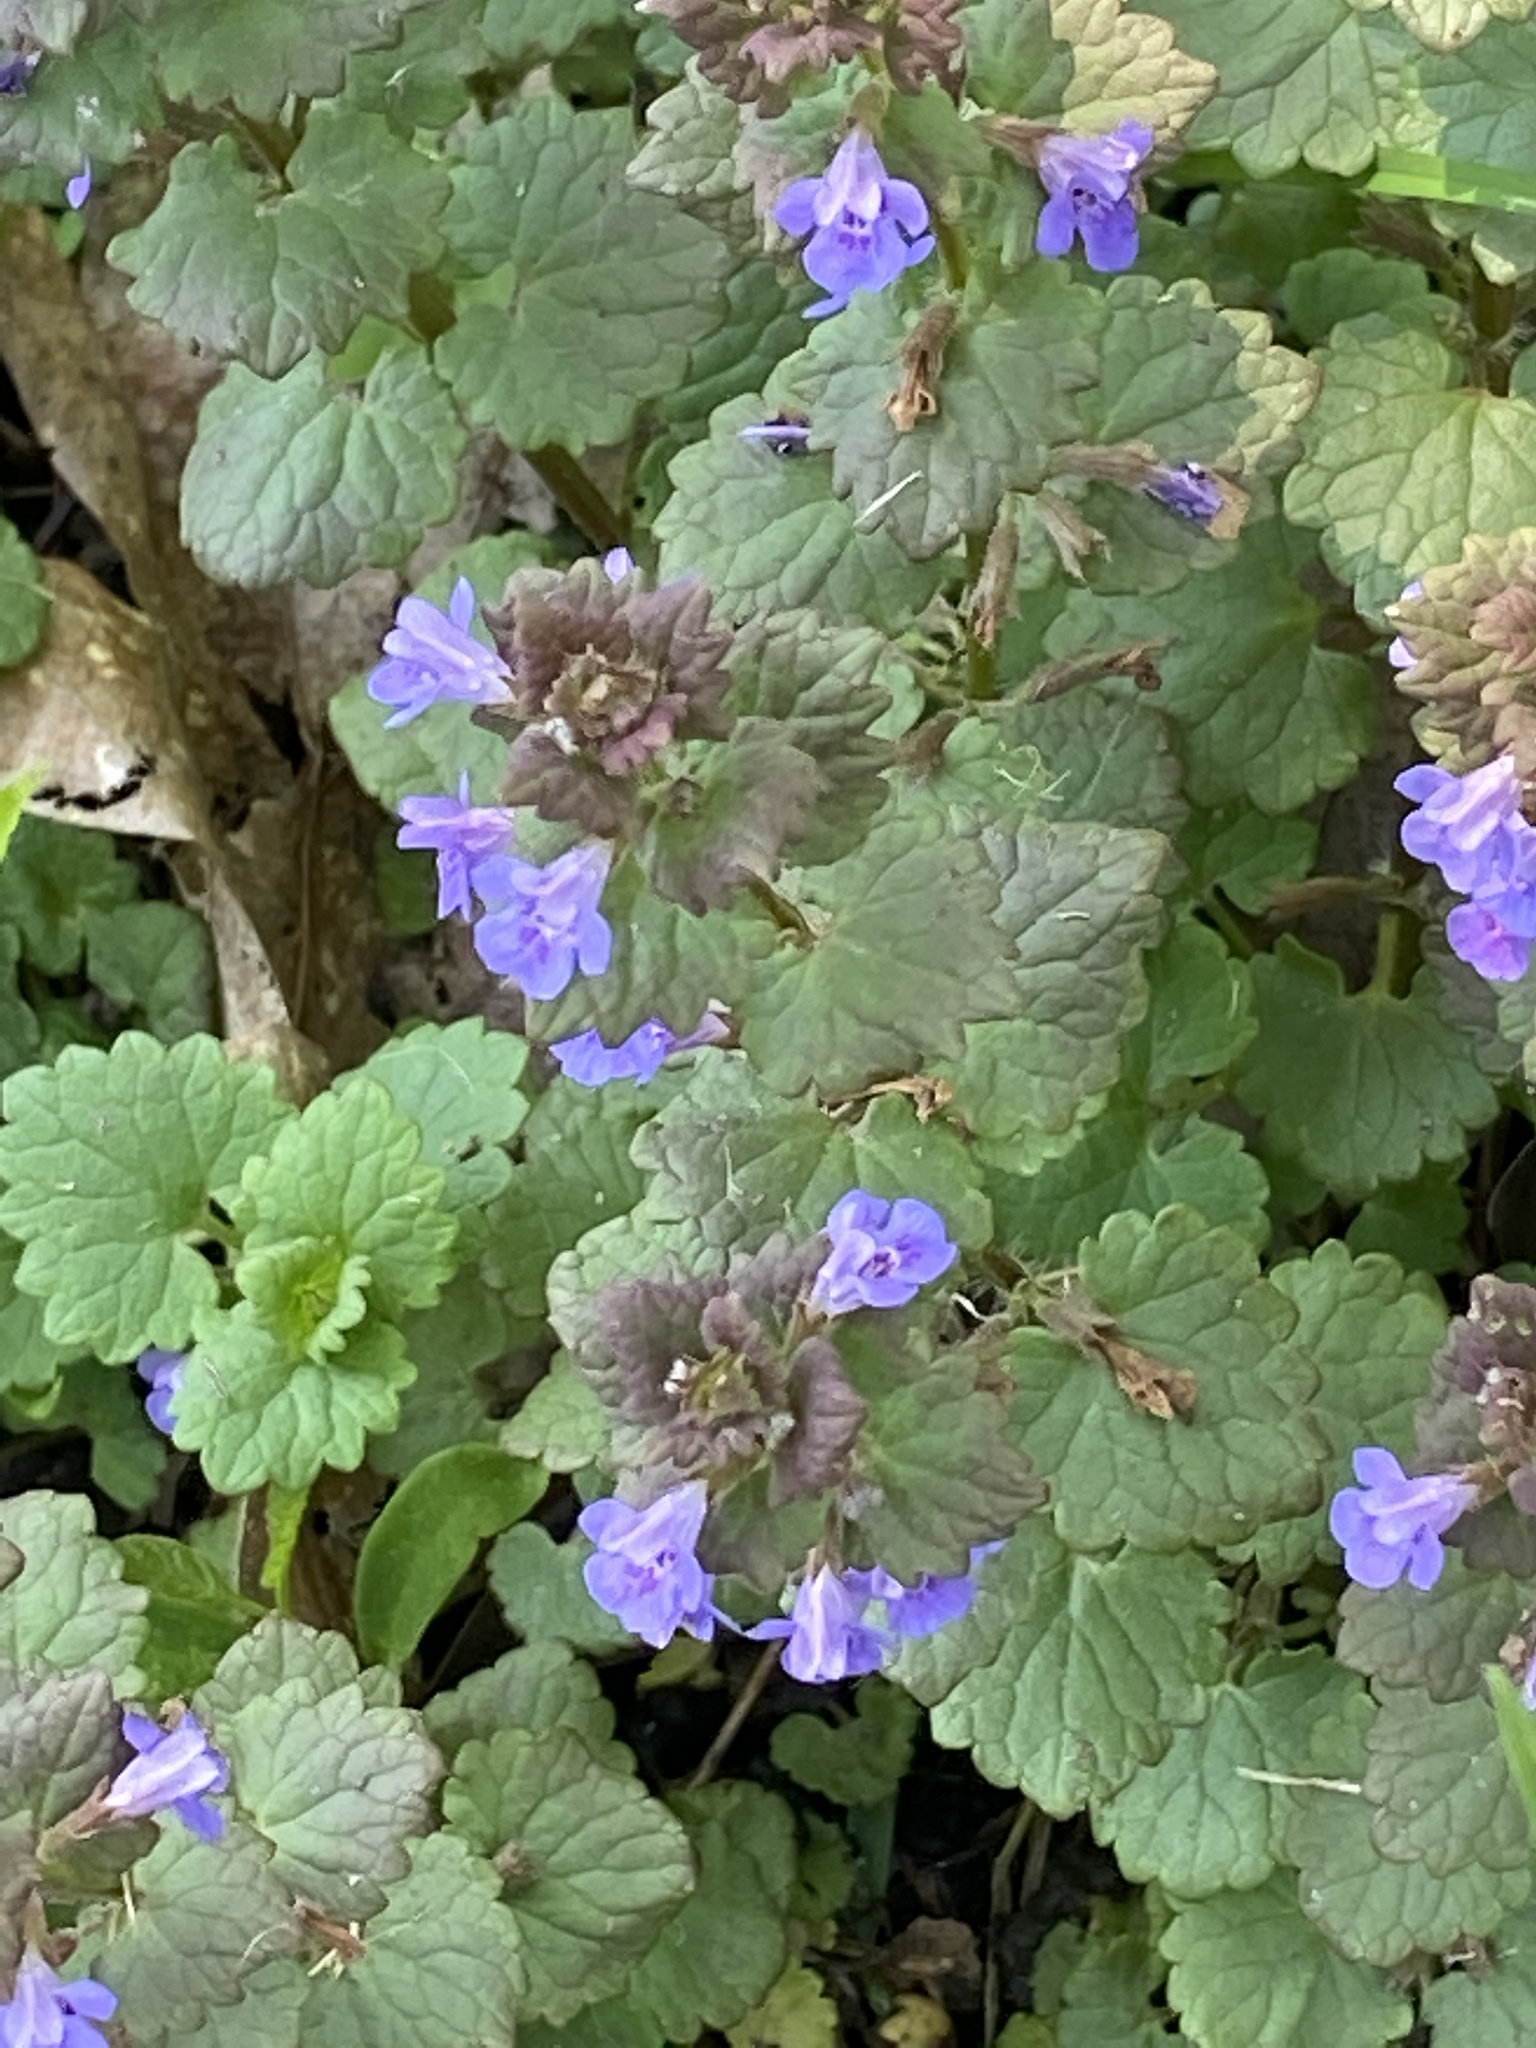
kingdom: Plantae
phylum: Tracheophyta
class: Magnoliopsida
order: Lamiales
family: Lamiaceae
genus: Glechoma
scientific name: Glechoma hederacea
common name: Ground ivy
